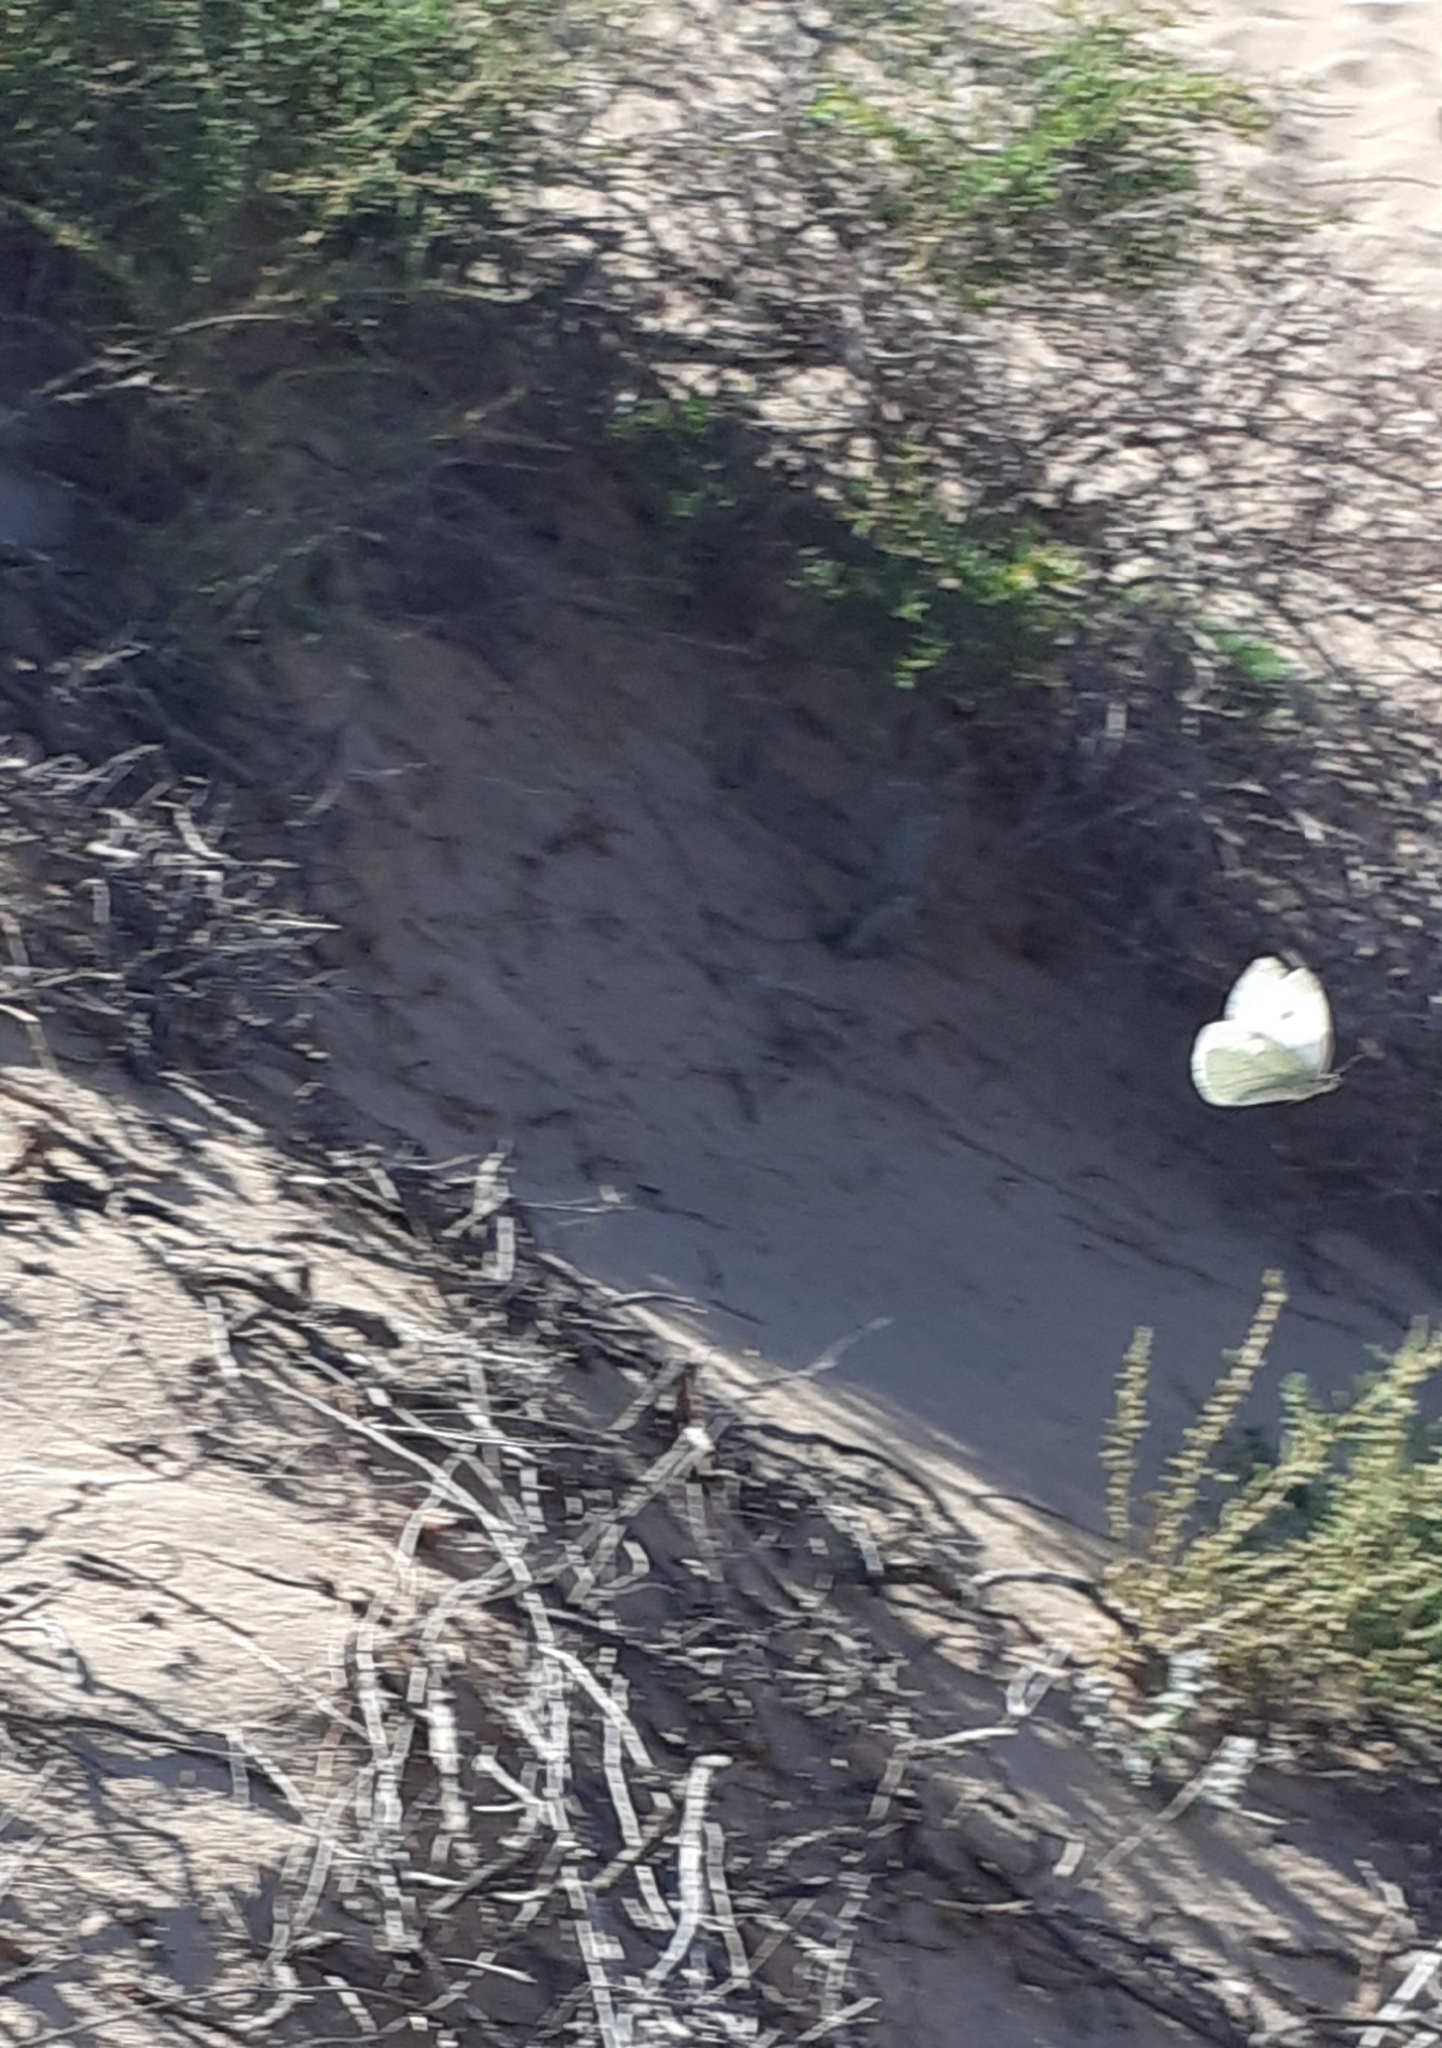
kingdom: Animalia
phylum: Arthropoda
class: Insecta
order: Lepidoptera
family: Pieridae
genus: Pieris
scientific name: Pieris rapae
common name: Small white
